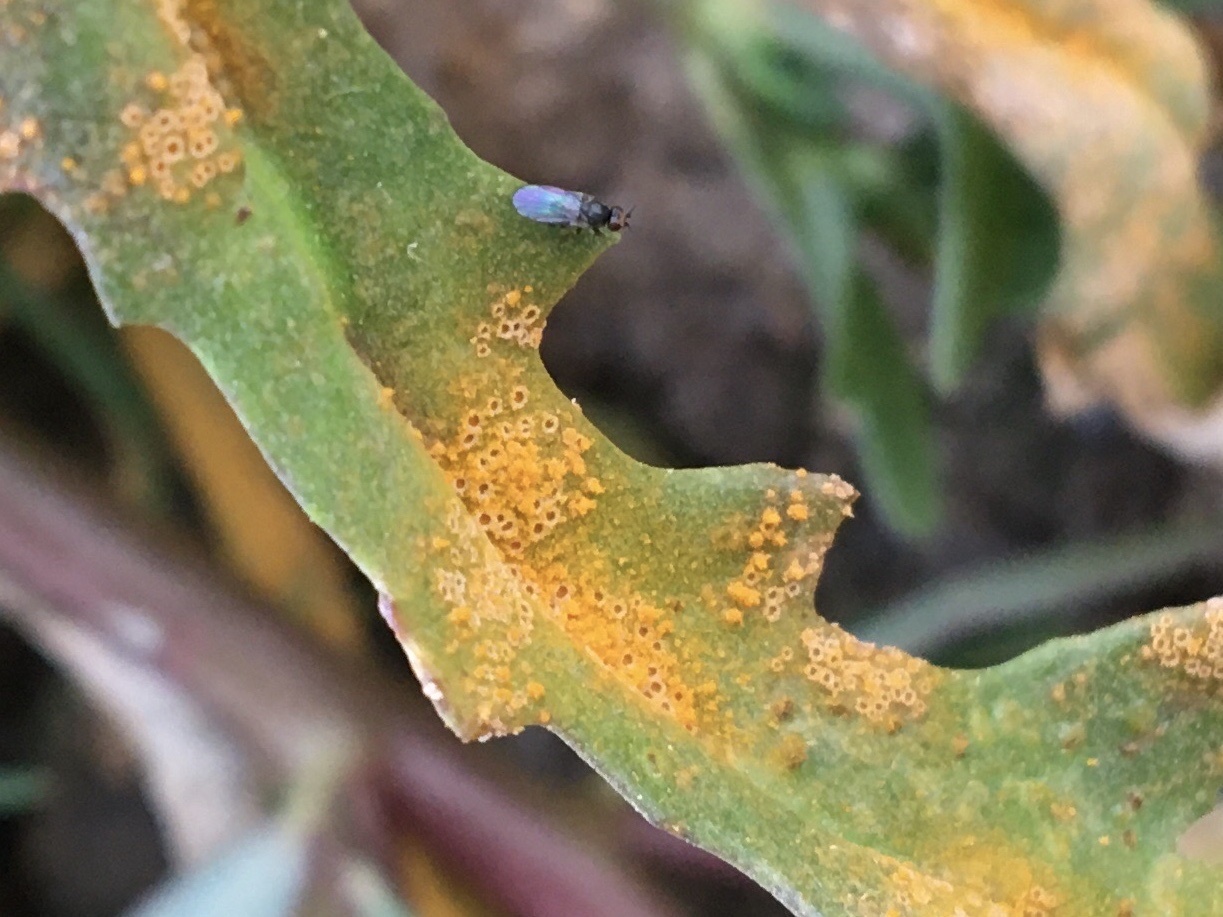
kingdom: Fungi
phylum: Basidiomycota
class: Pucciniomycetes
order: Pucciniales
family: Pucciniaceae
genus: Puccinia
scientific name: Puccinia lagenophorae
